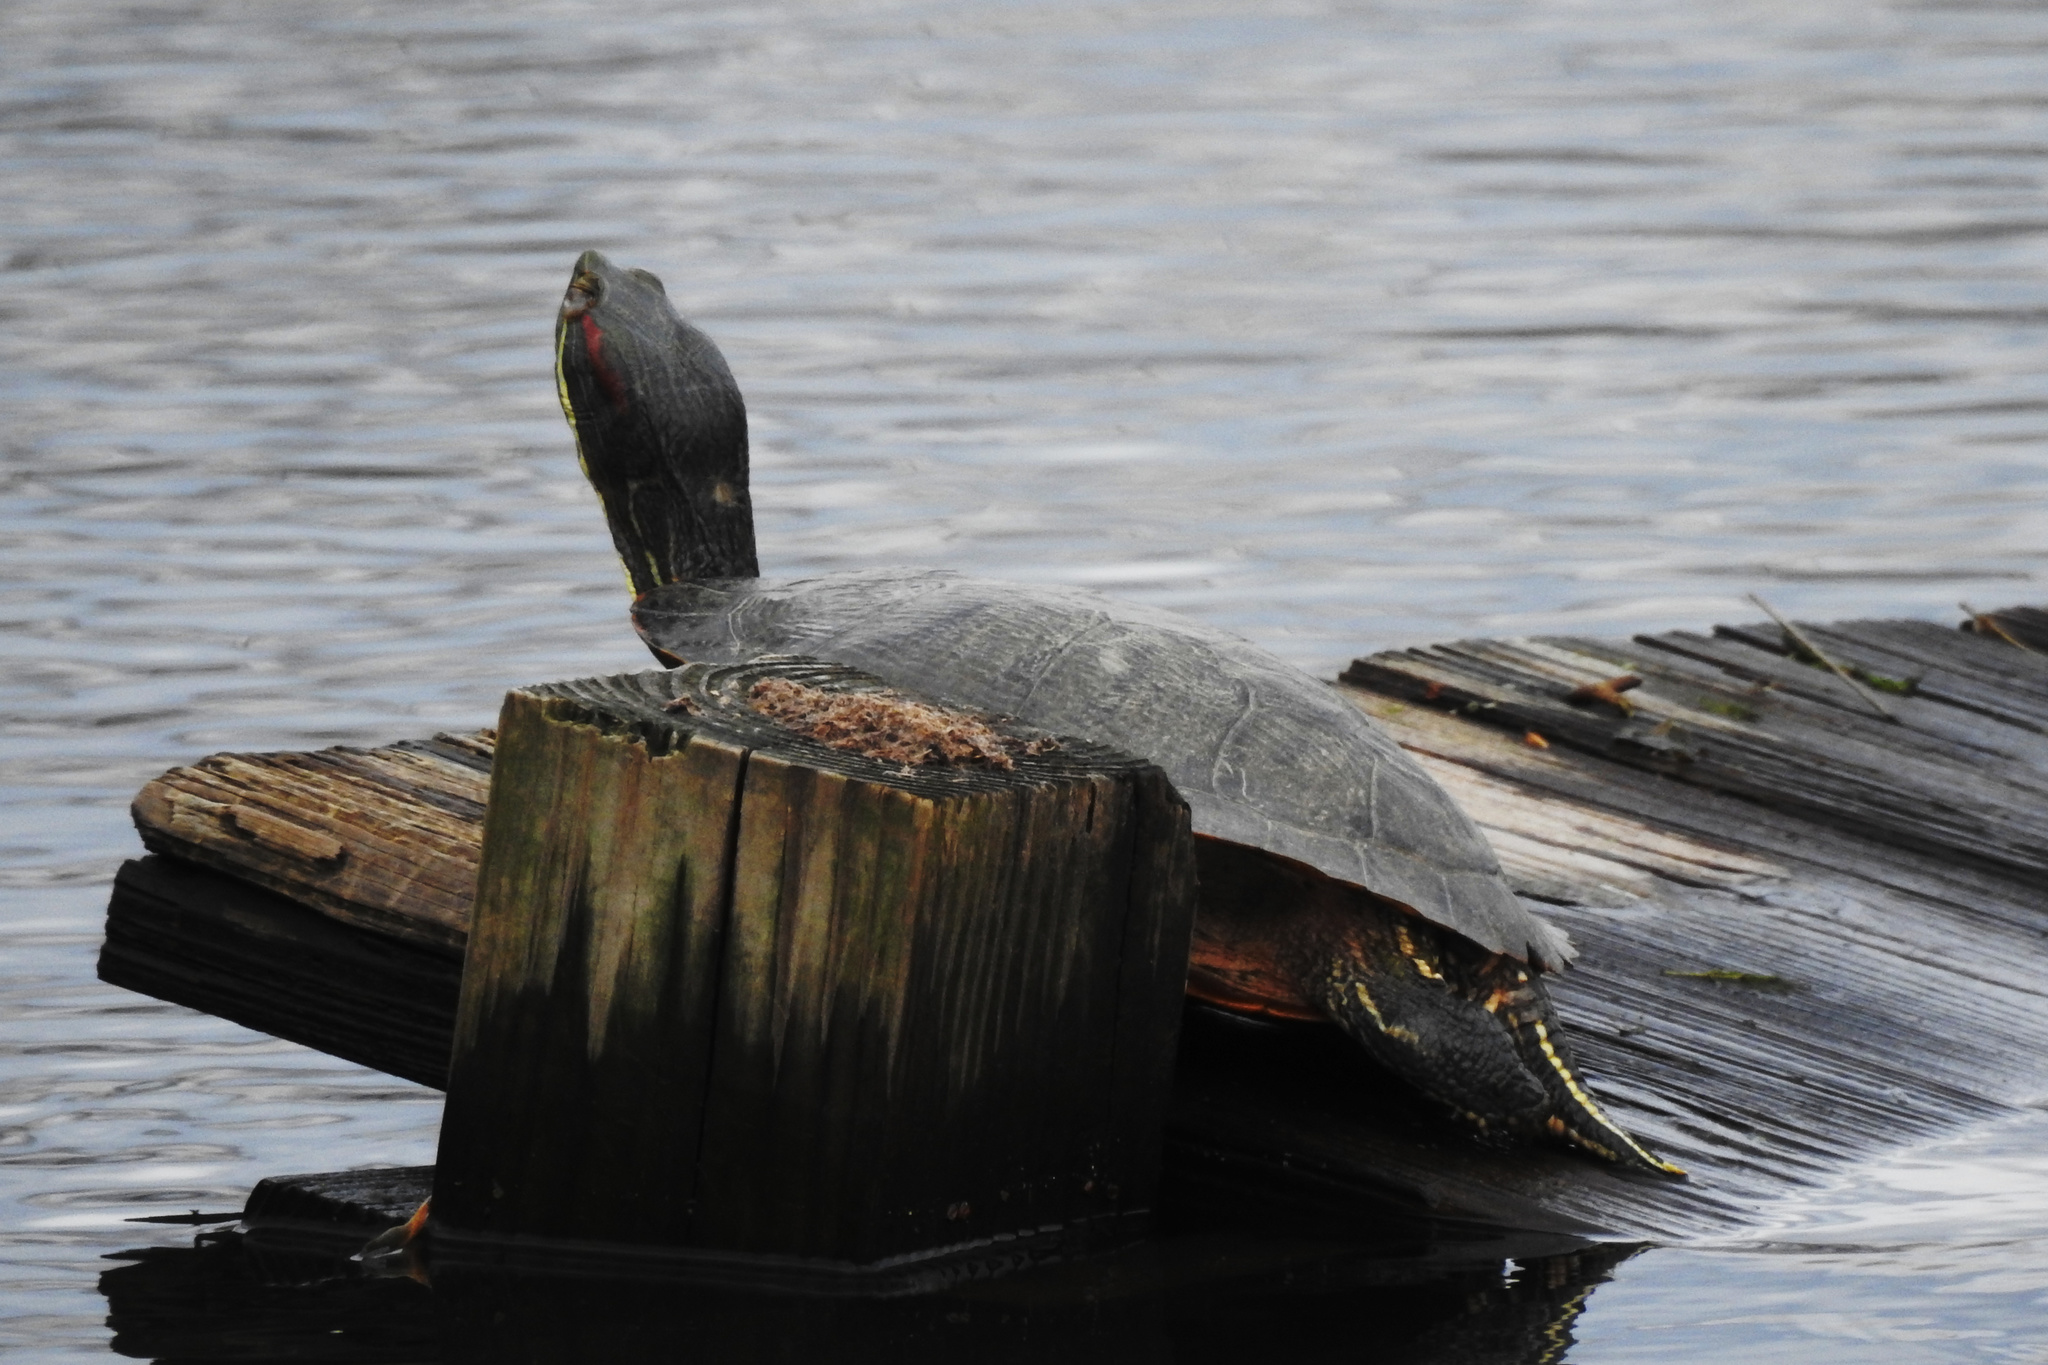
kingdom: Animalia
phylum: Chordata
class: Testudines
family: Emydidae
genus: Trachemys
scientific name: Trachemys scripta
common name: Slider
